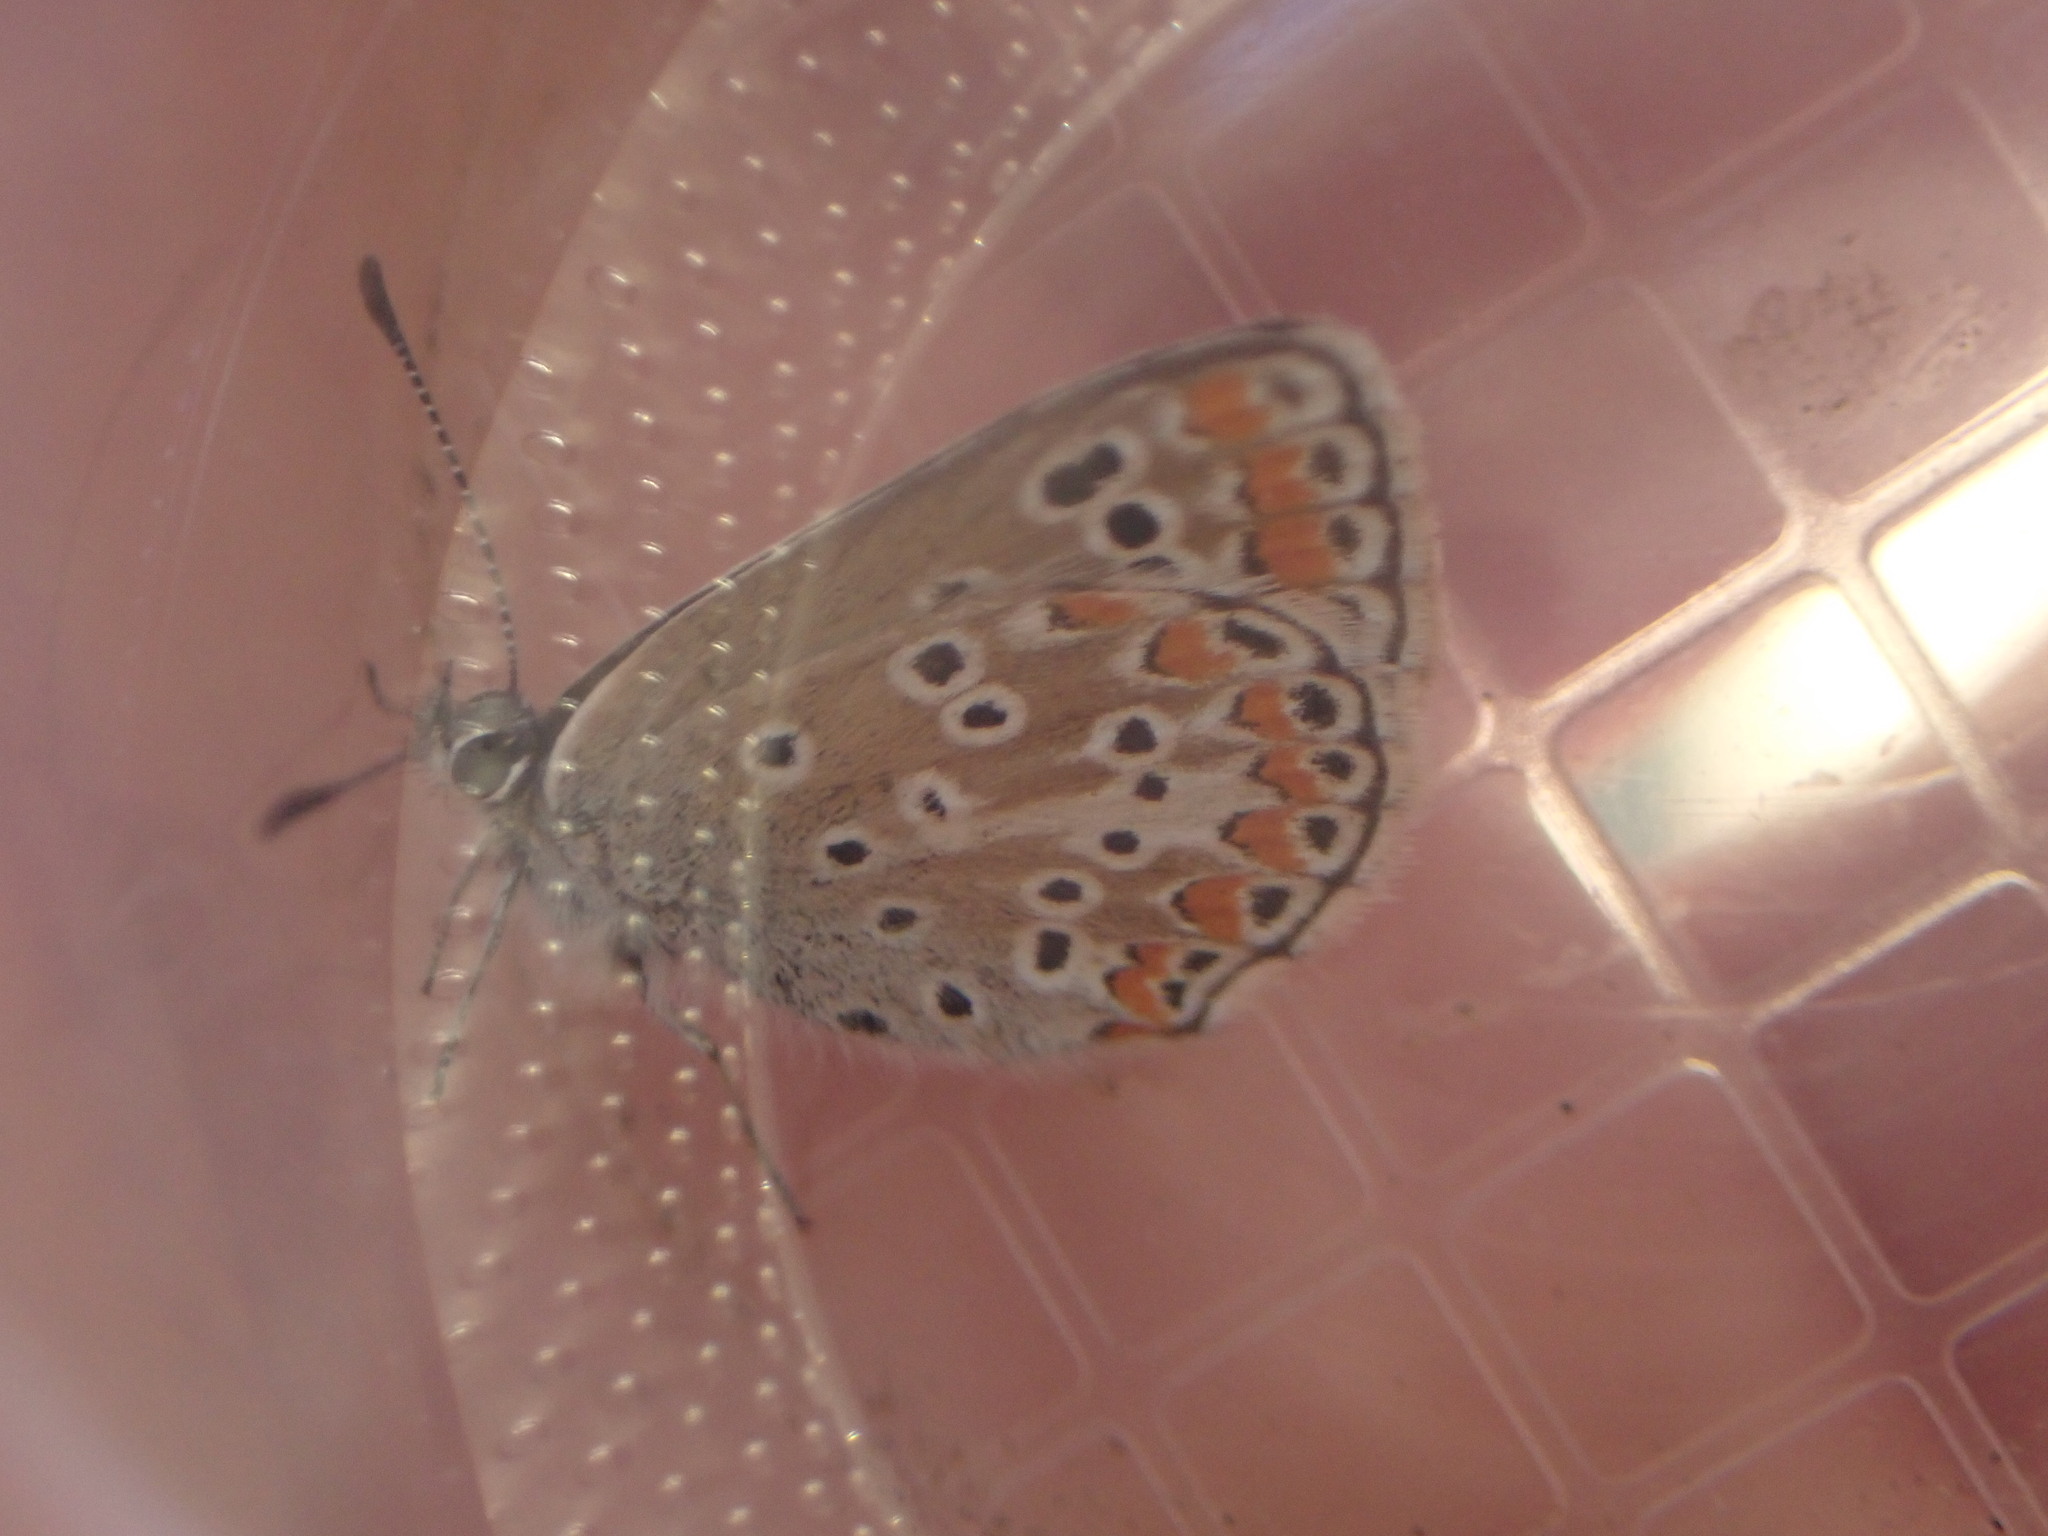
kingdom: Animalia
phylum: Arthropoda
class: Insecta
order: Lepidoptera
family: Lycaenidae
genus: Aricia
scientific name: Aricia agestis
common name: Brown argus
